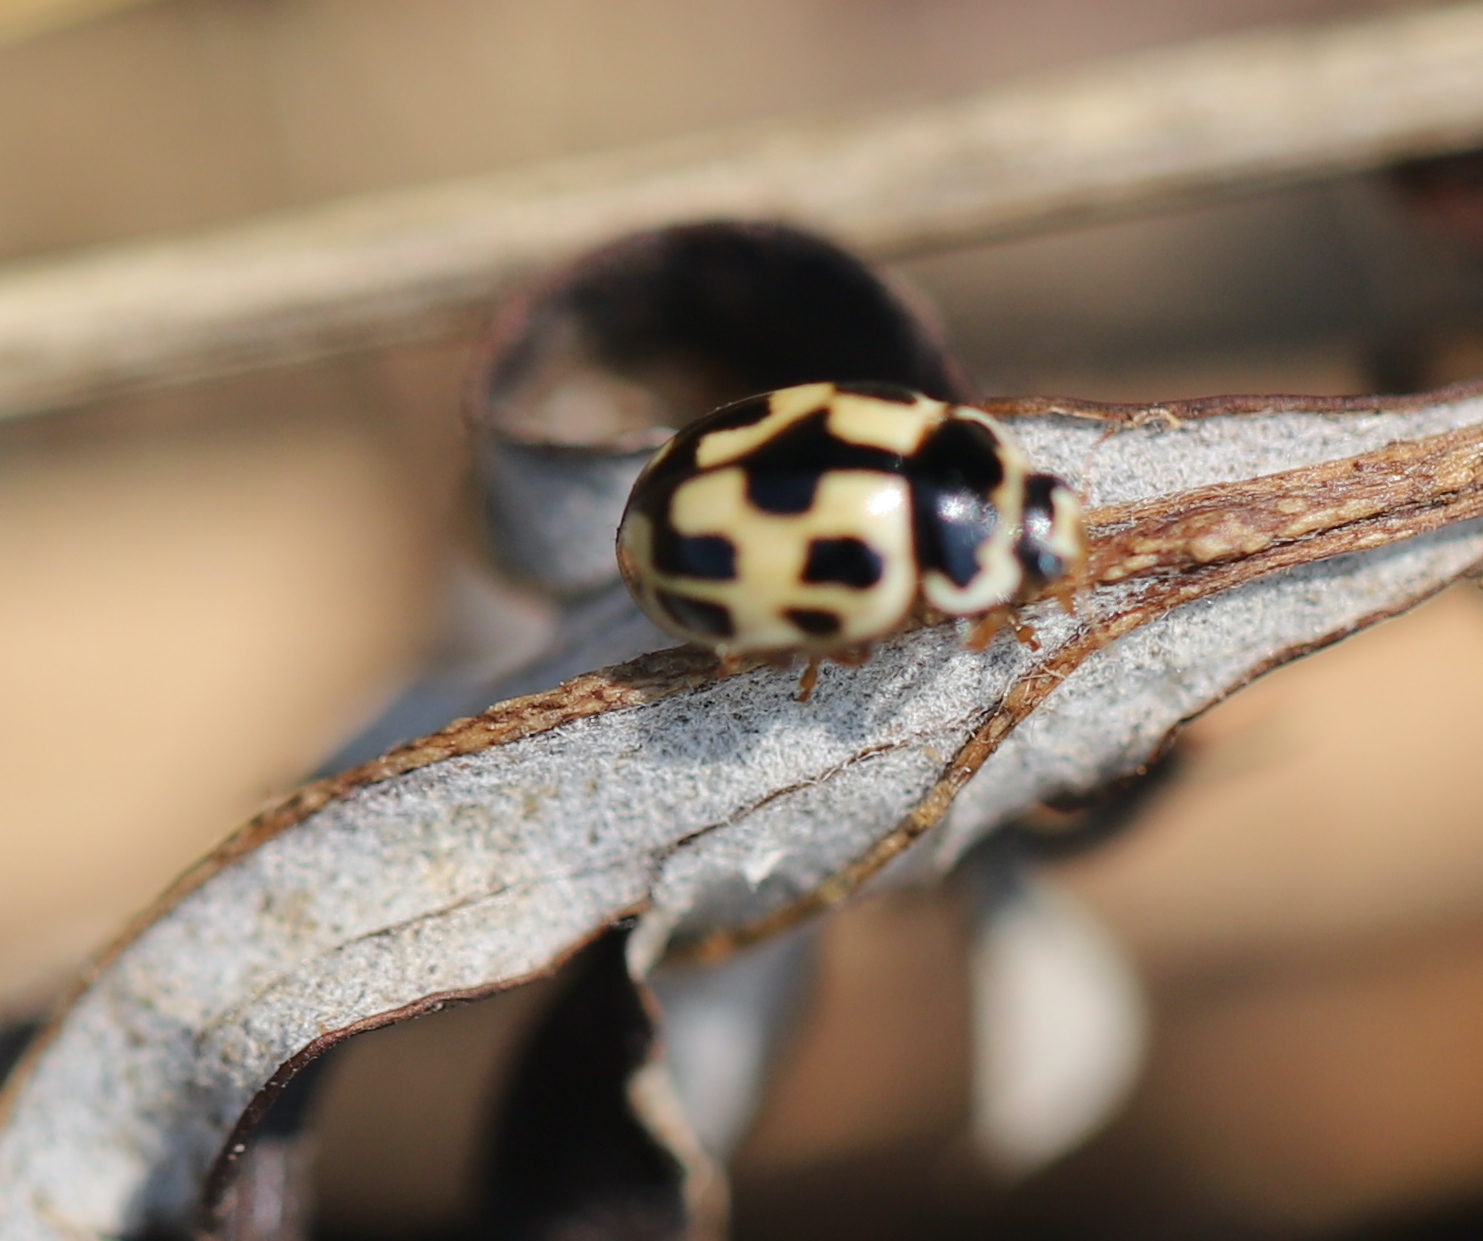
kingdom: Animalia
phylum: Arthropoda
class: Insecta
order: Coleoptera
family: Coccinellidae
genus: Propylaea
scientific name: Propylaea quatuordecimpunctata
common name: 14-spotted ladybird beetle
